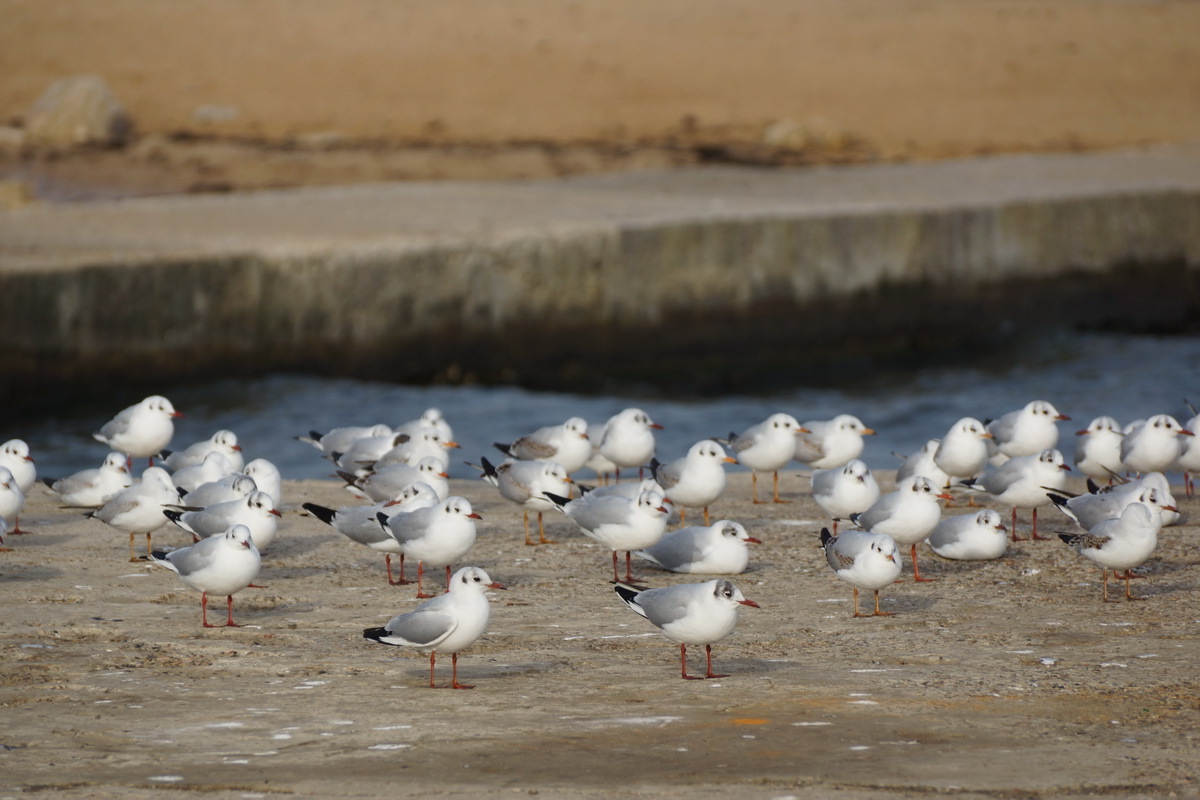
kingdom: Animalia
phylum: Chordata
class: Aves
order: Charadriiformes
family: Laridae
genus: Chroicocephalus
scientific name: Chroicocephalus ridibundus
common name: Black-headed gull
